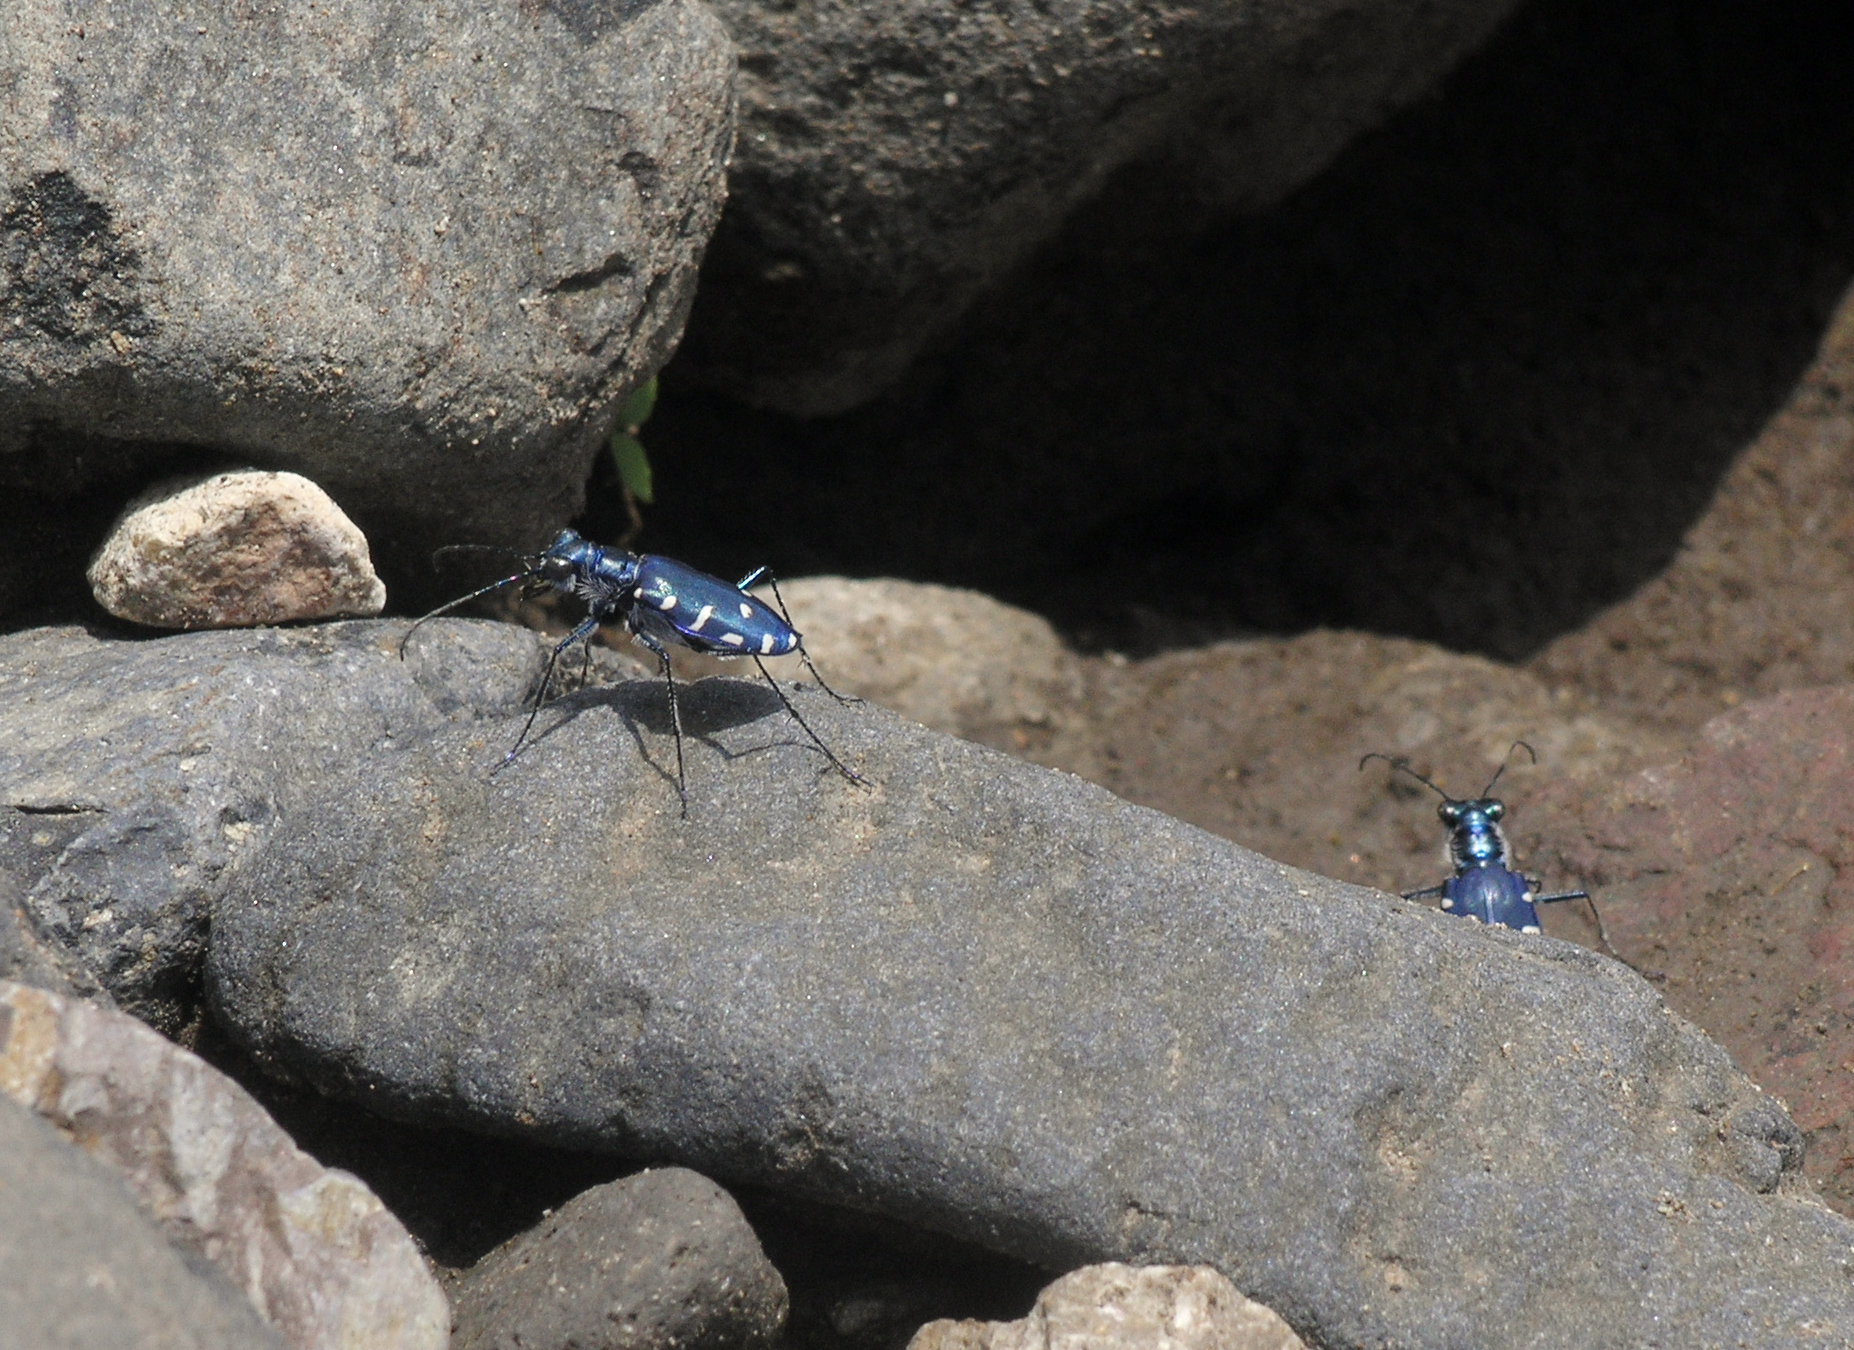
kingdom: Animalia
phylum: Arthropoda
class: Insecta
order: Coleoptera
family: Carabidae
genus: Calomera
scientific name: Calomera alboguttata
